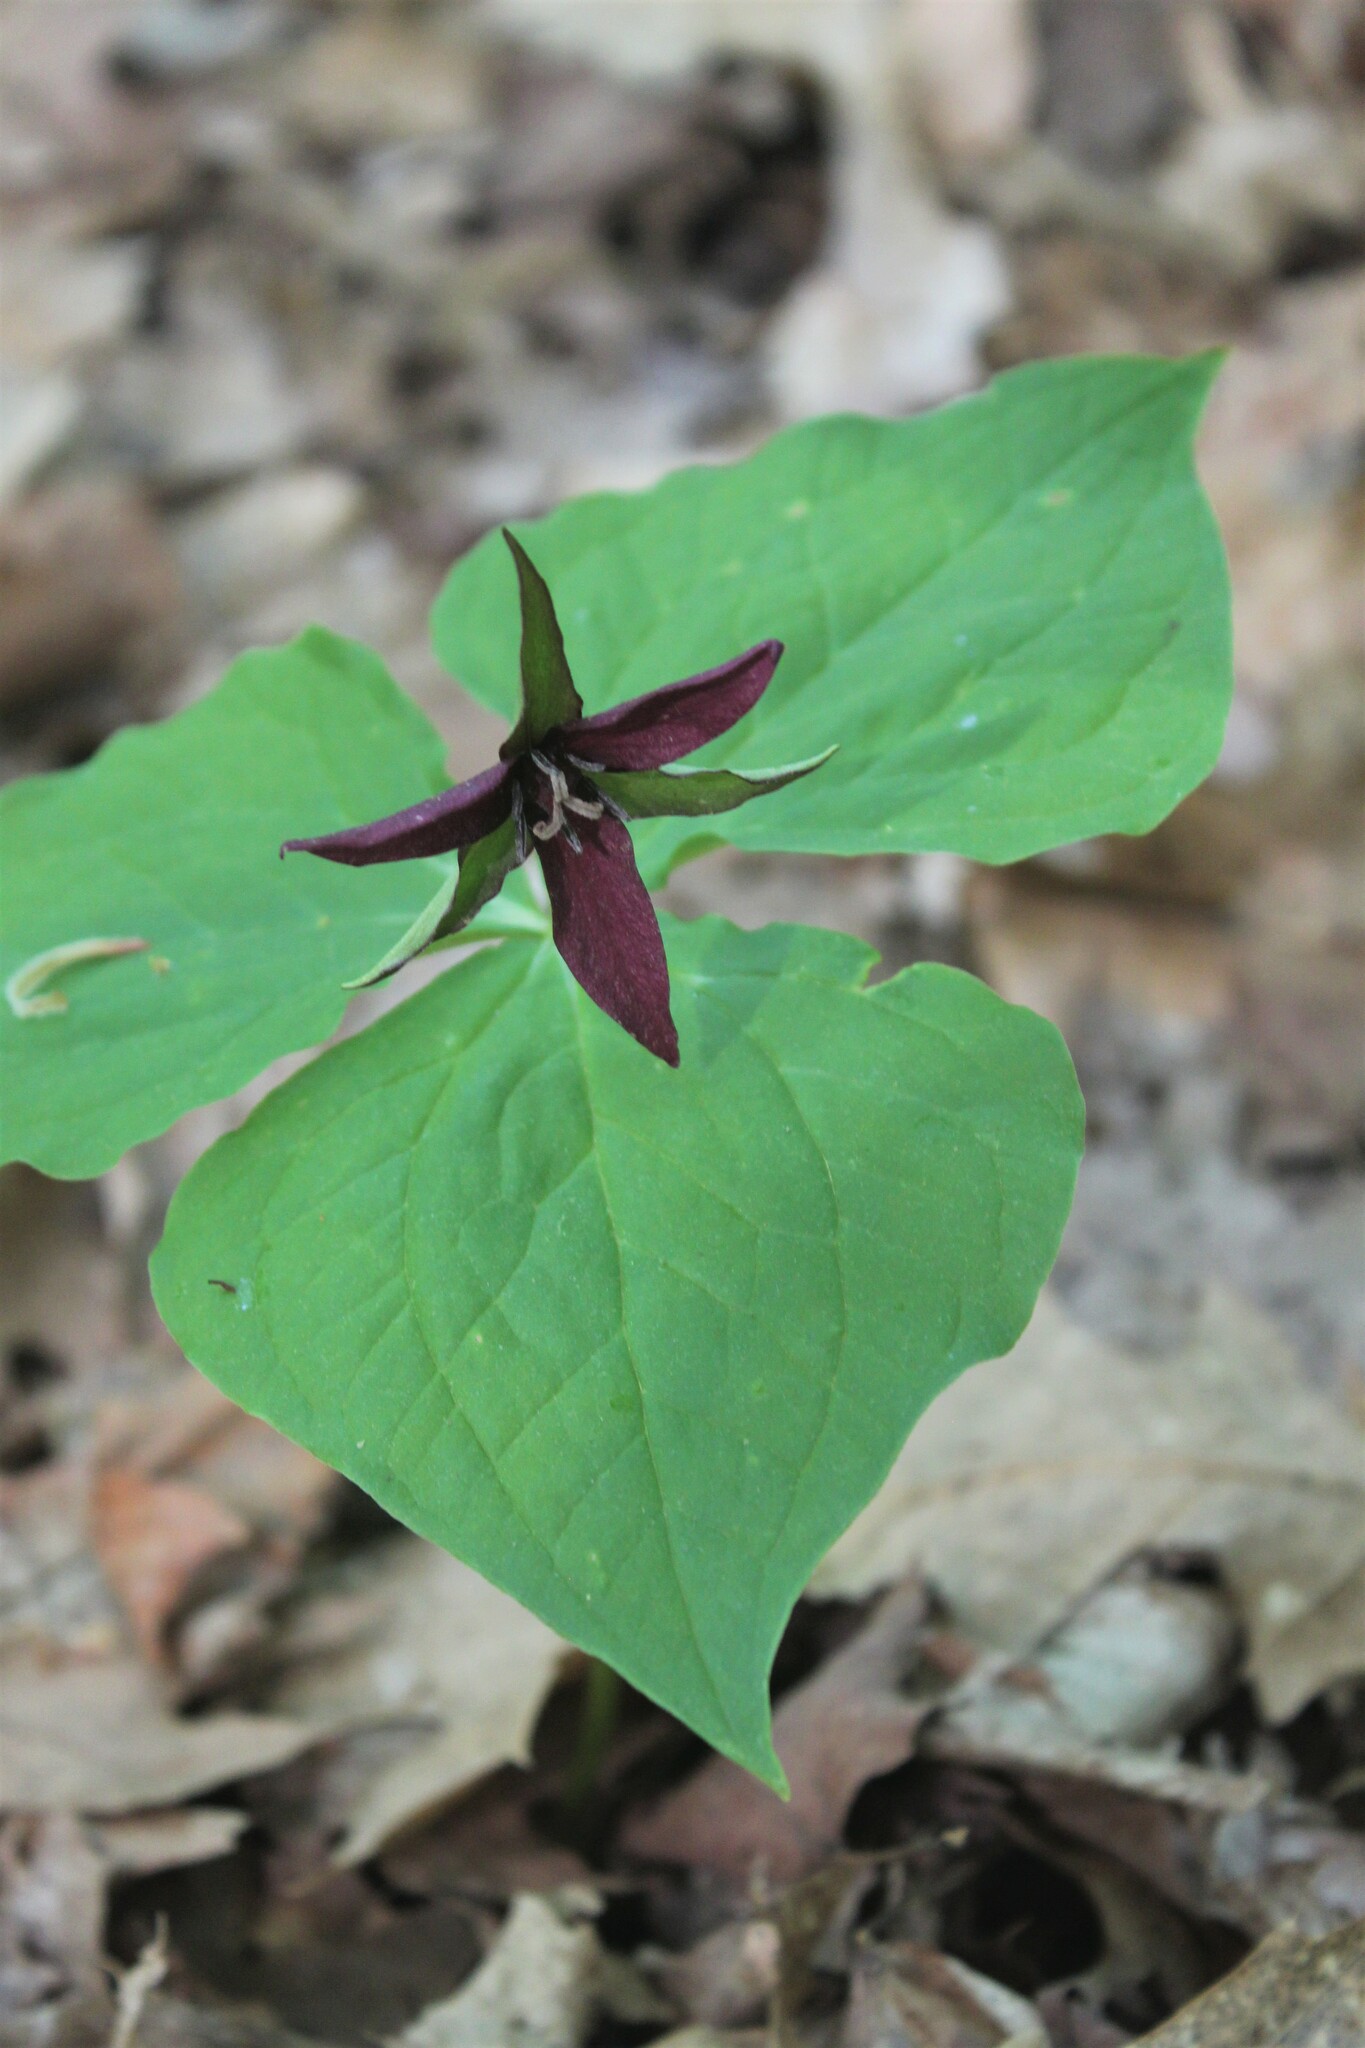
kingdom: Plantae
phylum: Tracheophyta
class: Liliopsida
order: Liliales
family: Melanthiaceae
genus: Trillium
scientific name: Trillium erectum
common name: Purple trillium
